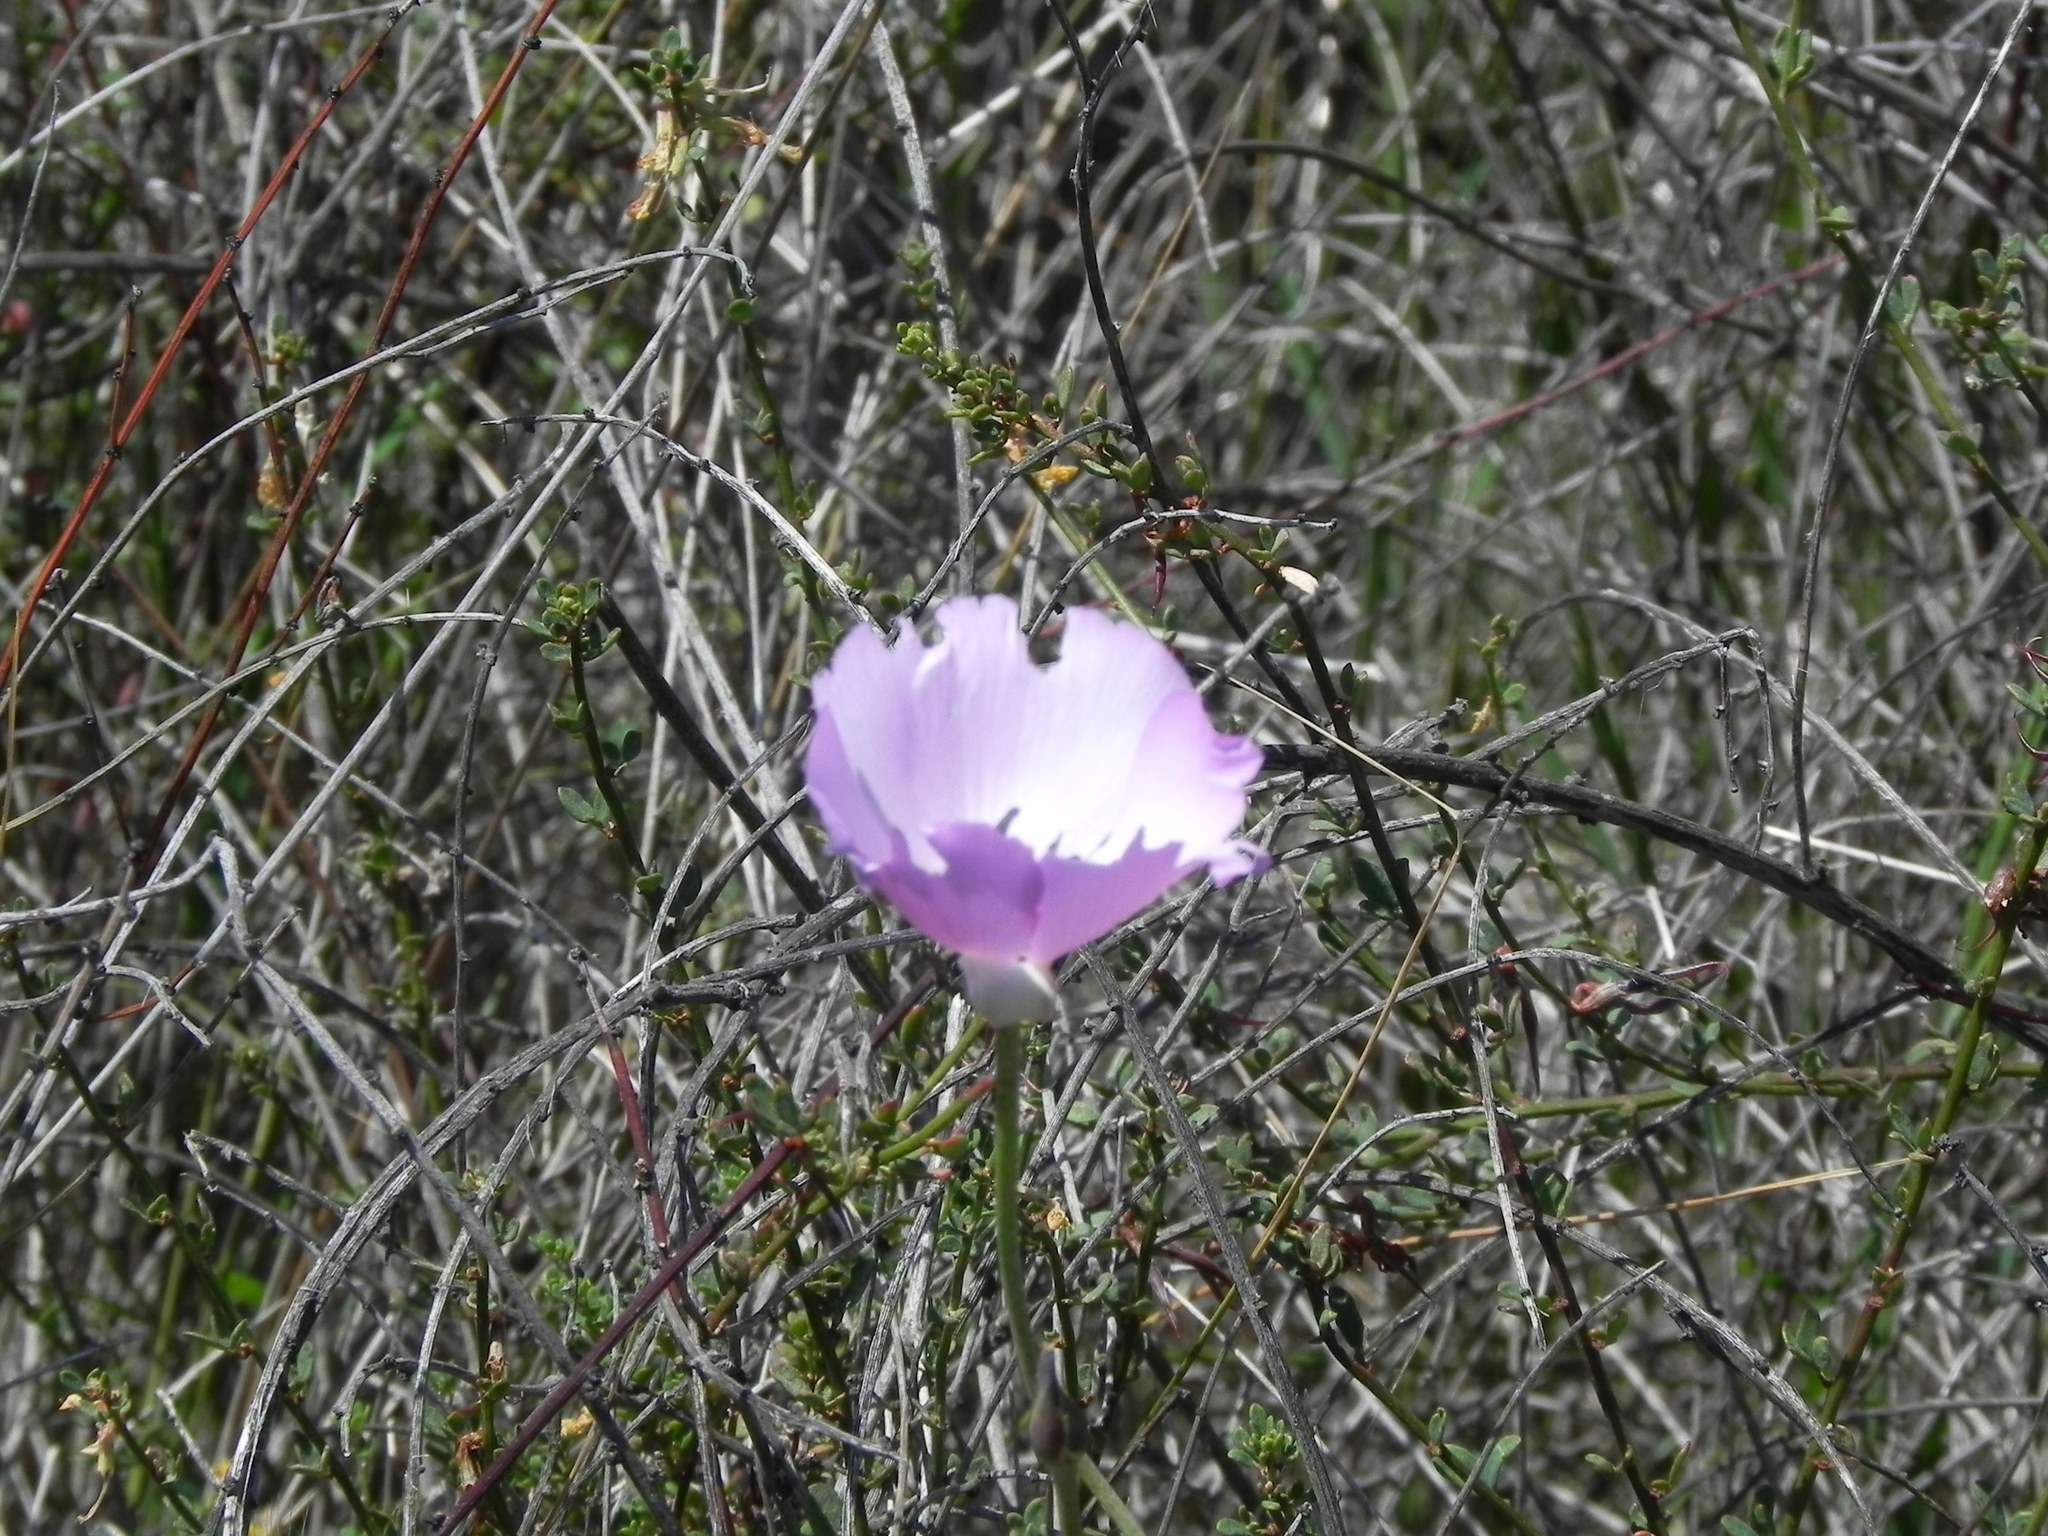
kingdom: Plantae
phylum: Tracheophyta
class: Liliopsida
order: Liliales
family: Liliaceae
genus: Calochortus
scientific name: Calochortus splendens
